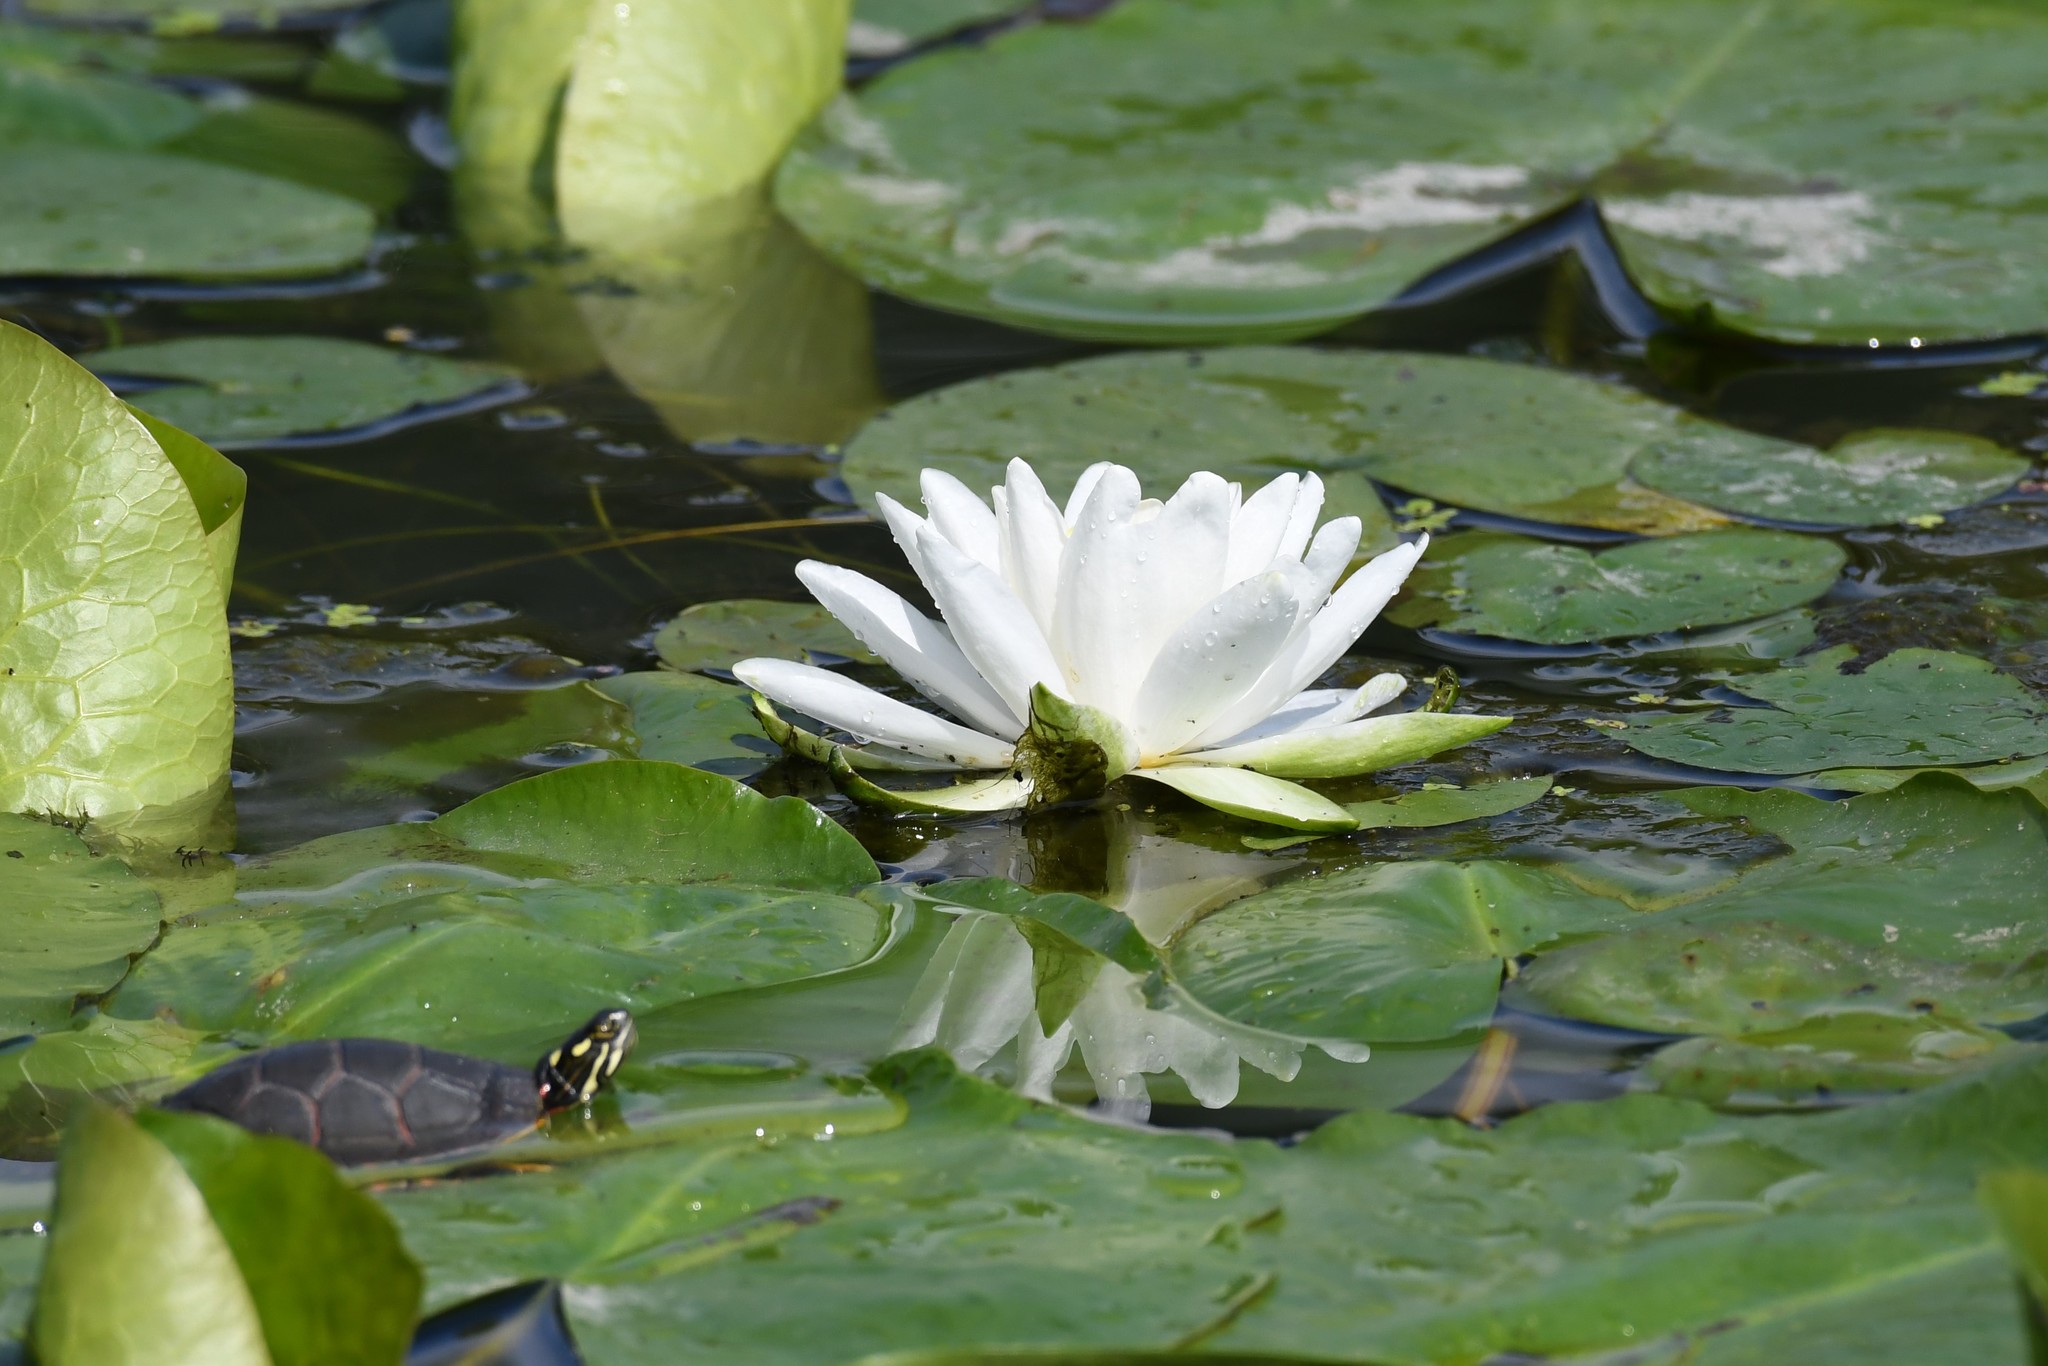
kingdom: Plantae
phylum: Tracheophyta
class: Magnoliopsida
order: Nymphaeales
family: Nymphaeaceae
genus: Nymphaea
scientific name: Nymphaea odorata
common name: Fragrant water-lily
